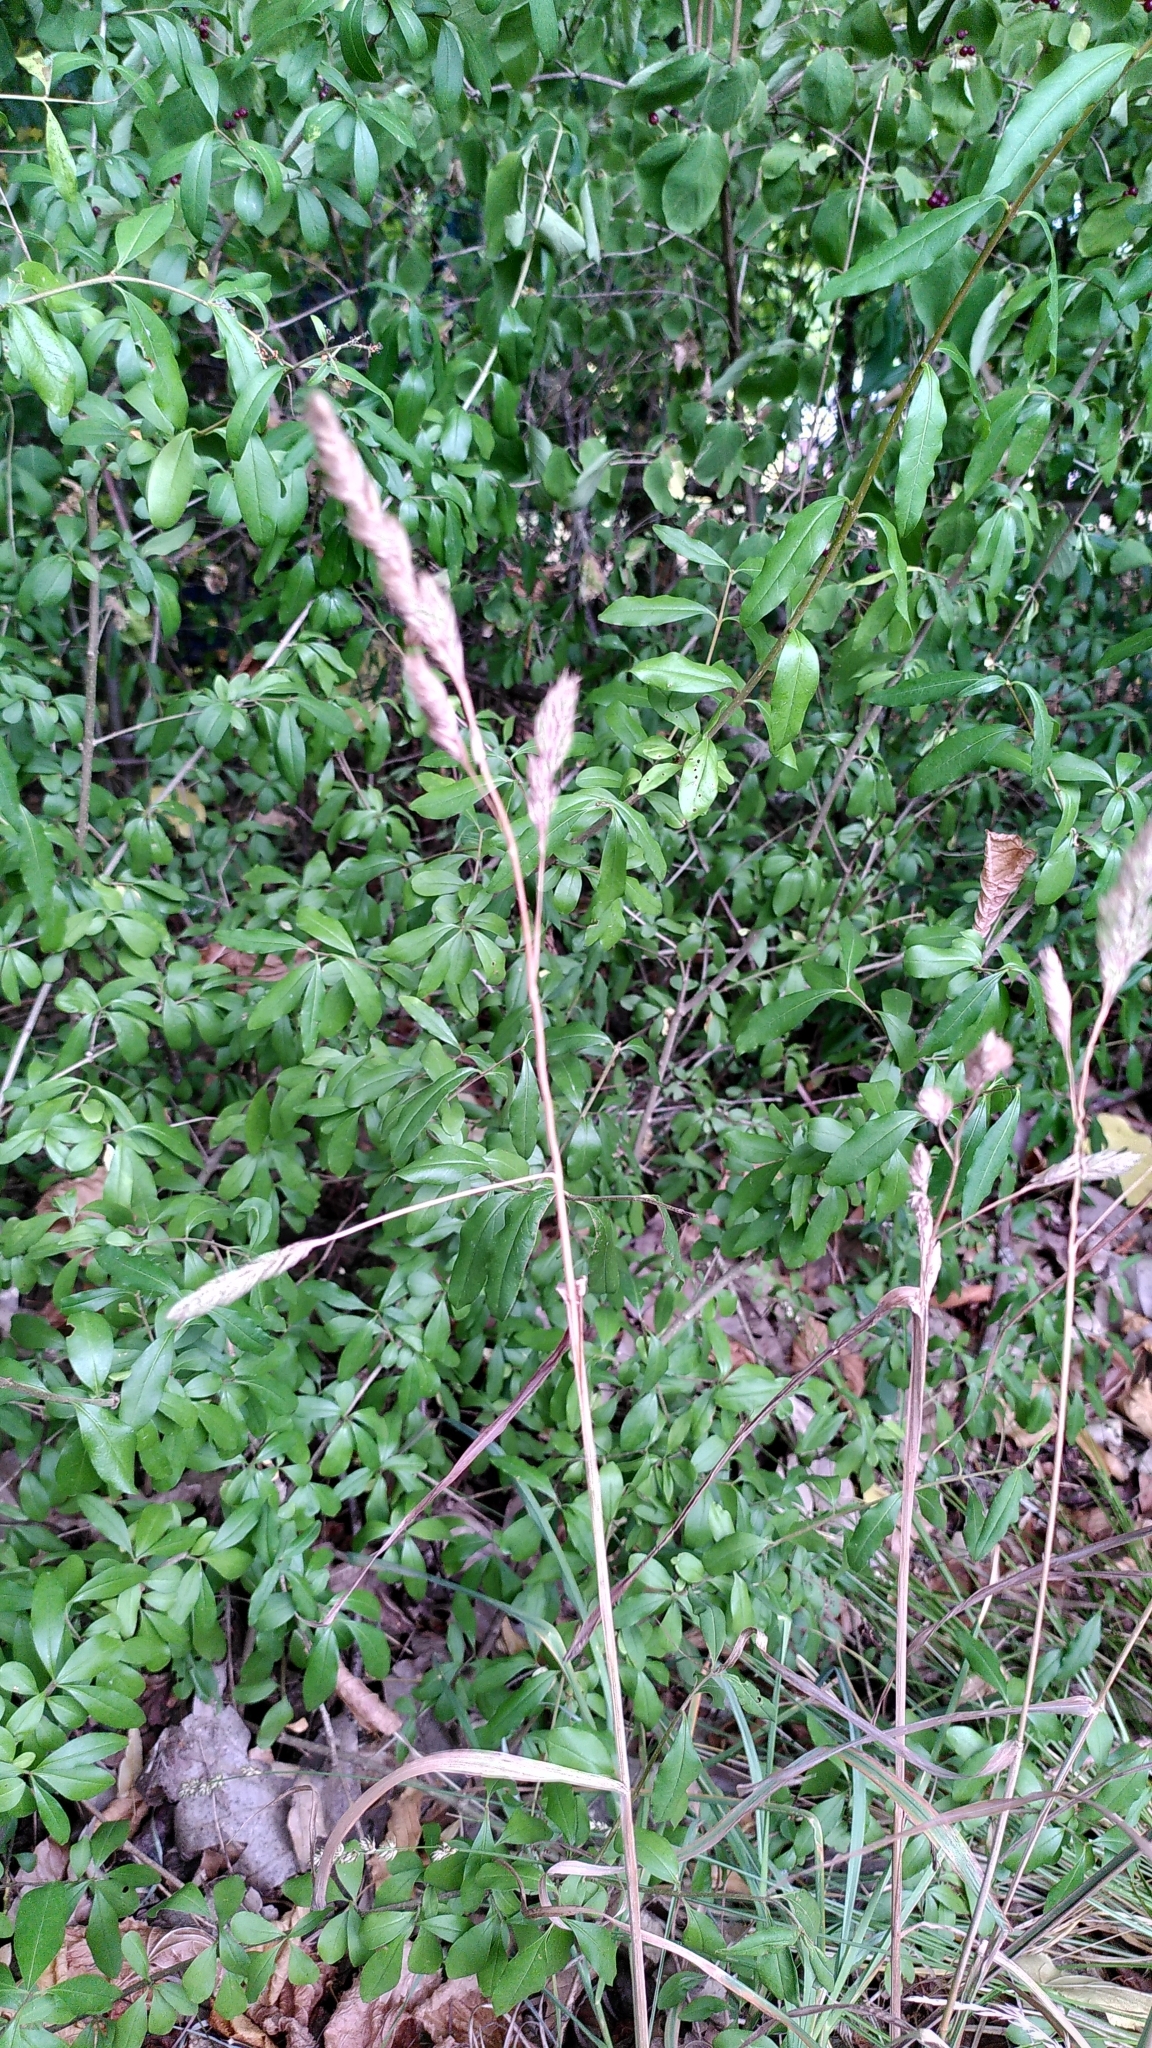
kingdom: Plantae
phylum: Tracheophyta
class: Liliopsida
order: Poales
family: Poaceae
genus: Dactylis
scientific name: Dactylis glomerata
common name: Orchardgrass
